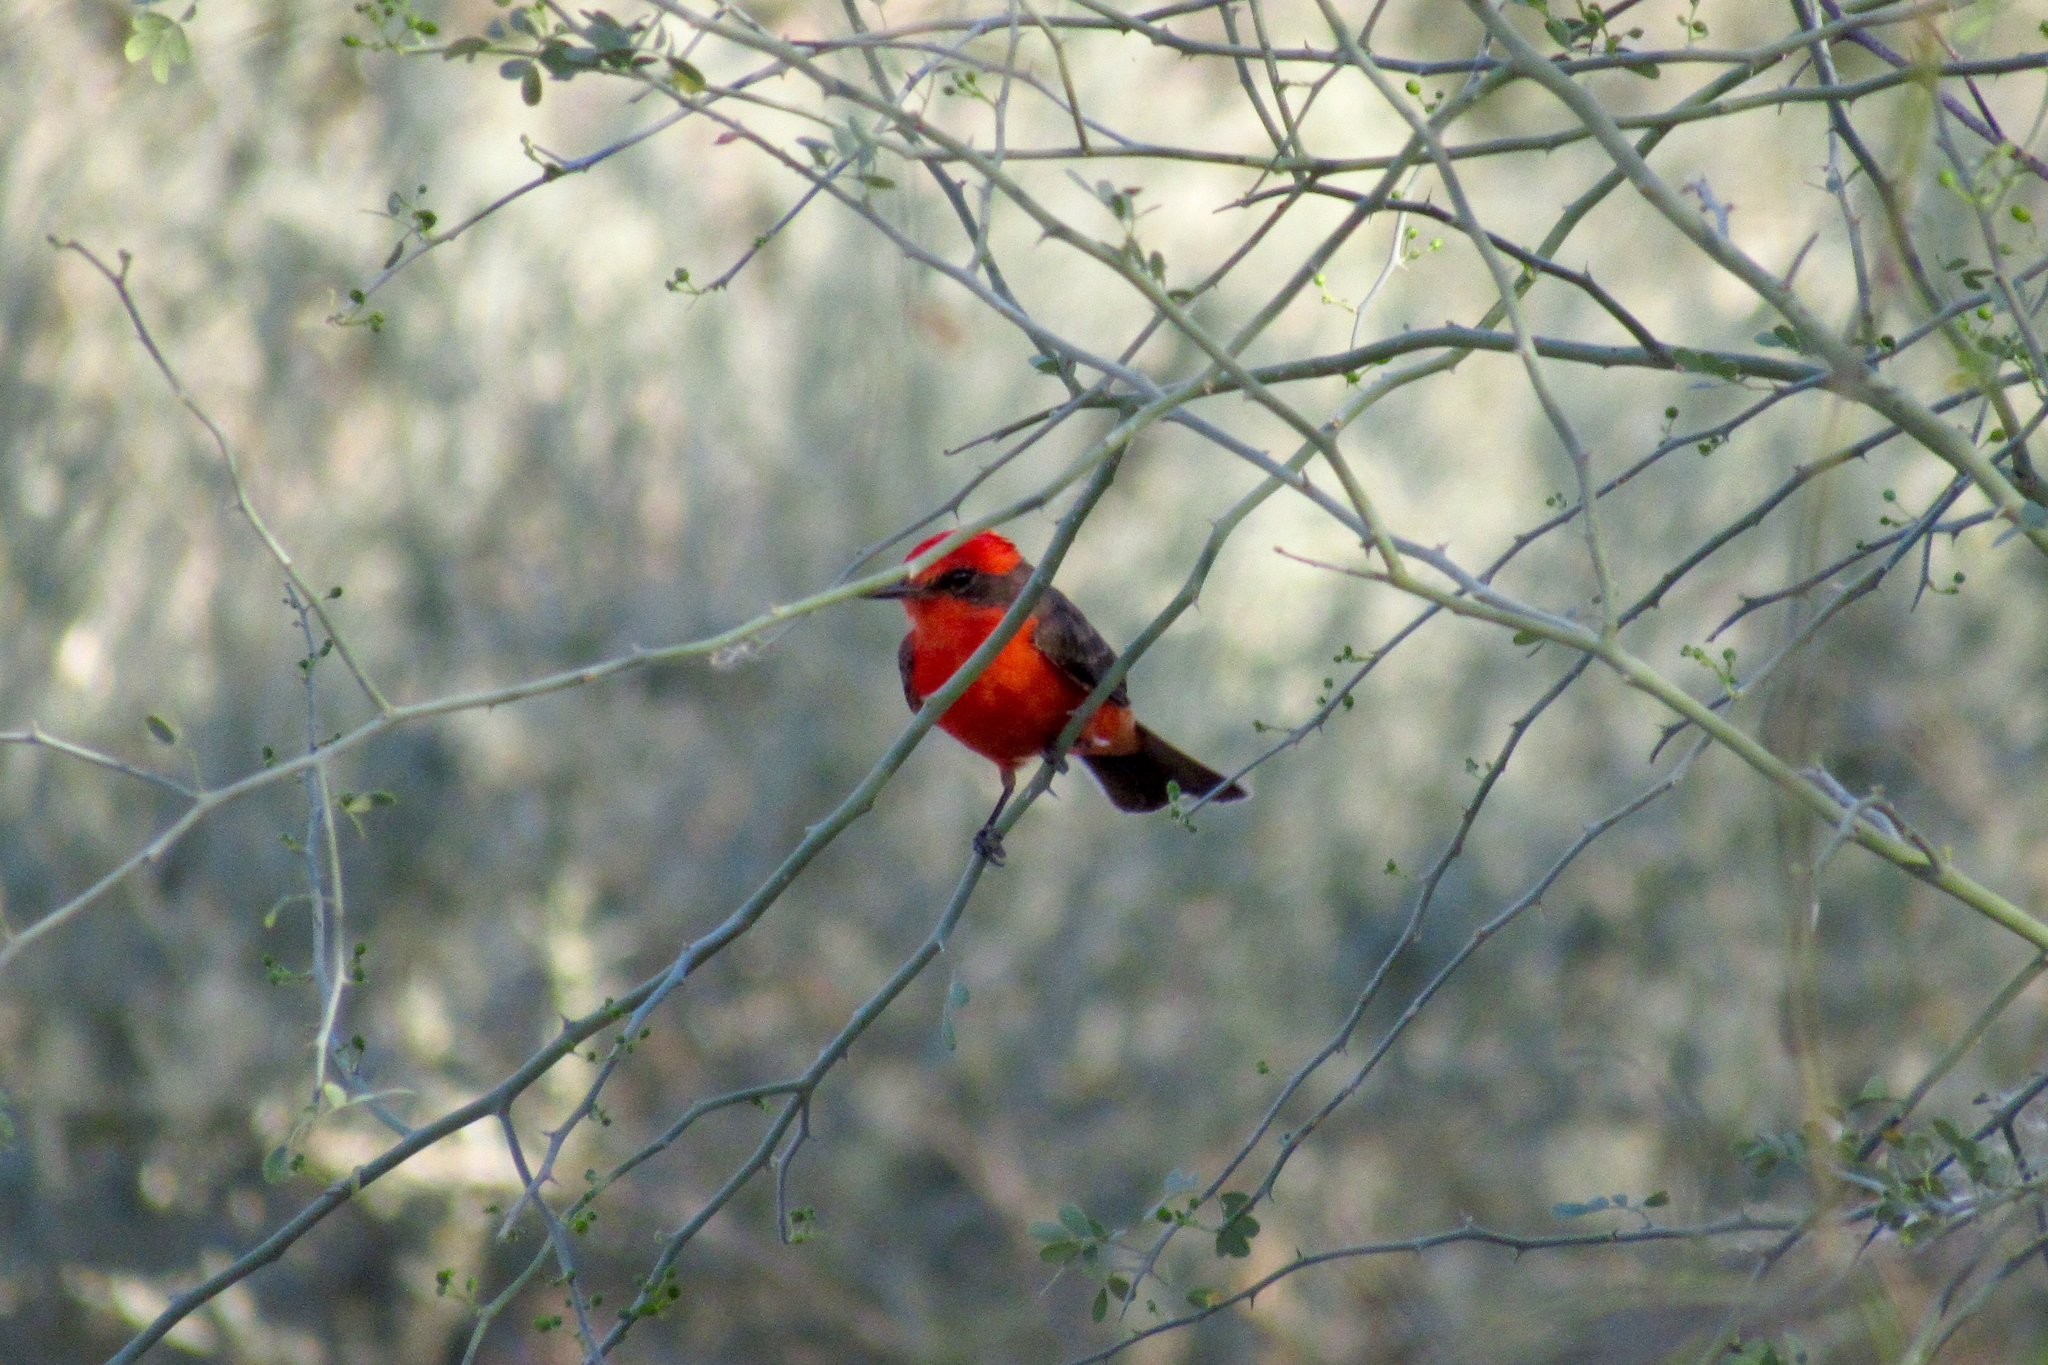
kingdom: Animalia
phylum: Chordata
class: Aves
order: Passeriformes
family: Tyrannidae
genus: Pyrocephalus
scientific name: Pyrocephalus rubinus
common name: Vermilion flycatcher
